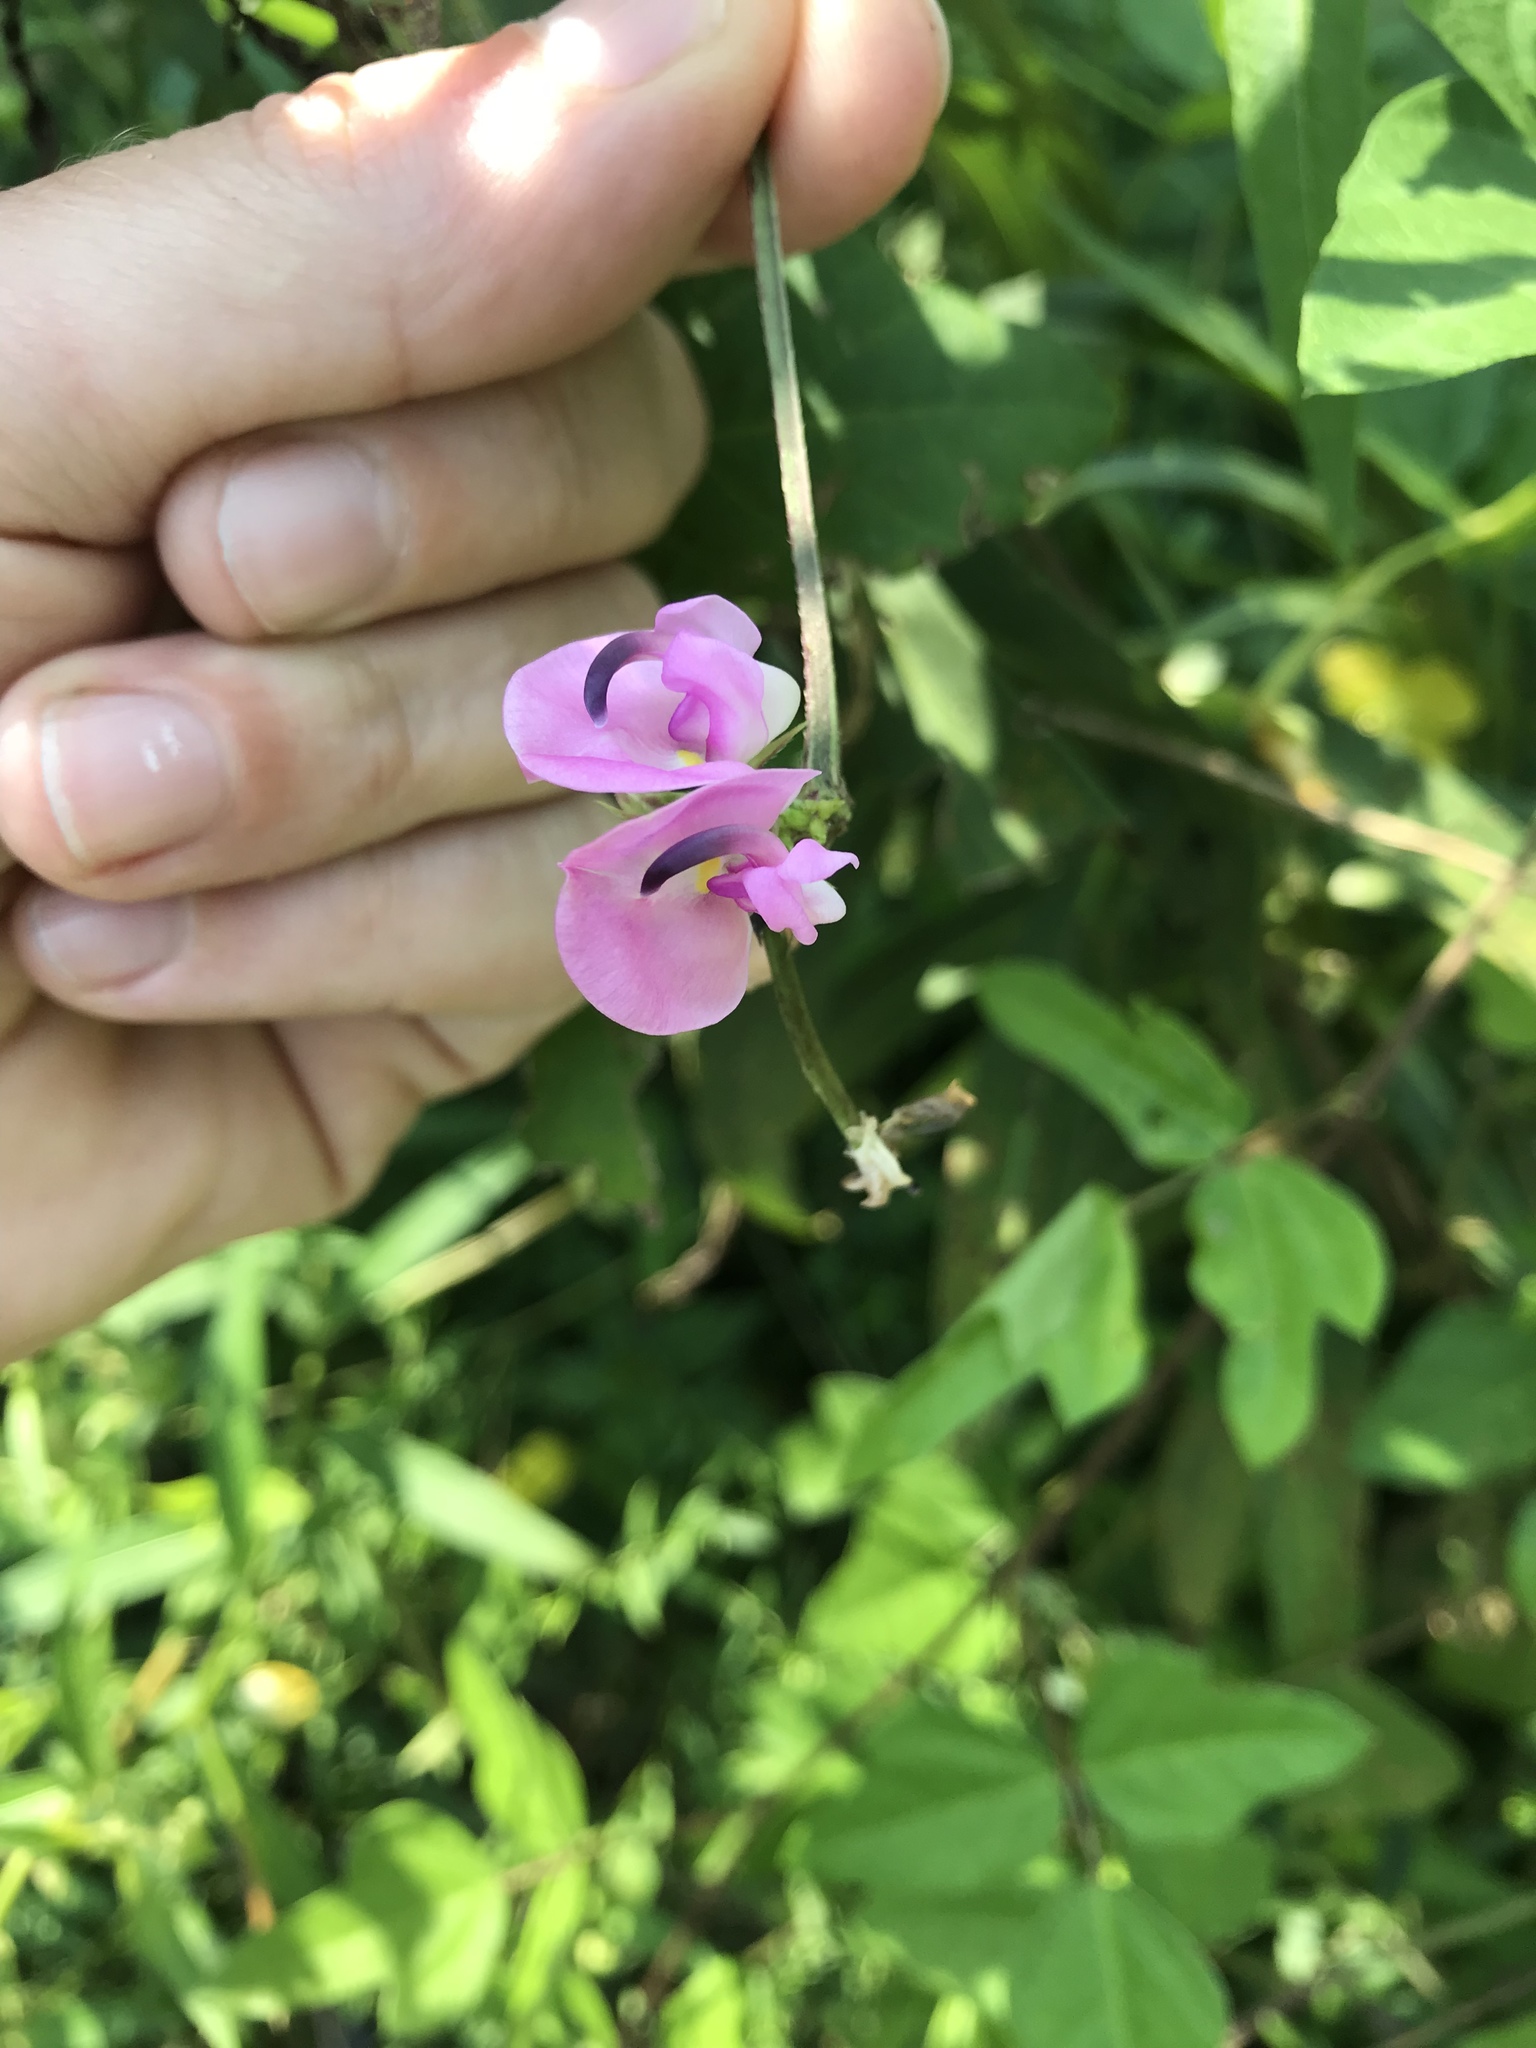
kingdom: Plantae
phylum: Tracheophyta
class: Magnoliopsida
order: Fabales
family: Fabaceae
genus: Strophostyles
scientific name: Strophostyles helvola
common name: Trailing wild bean
